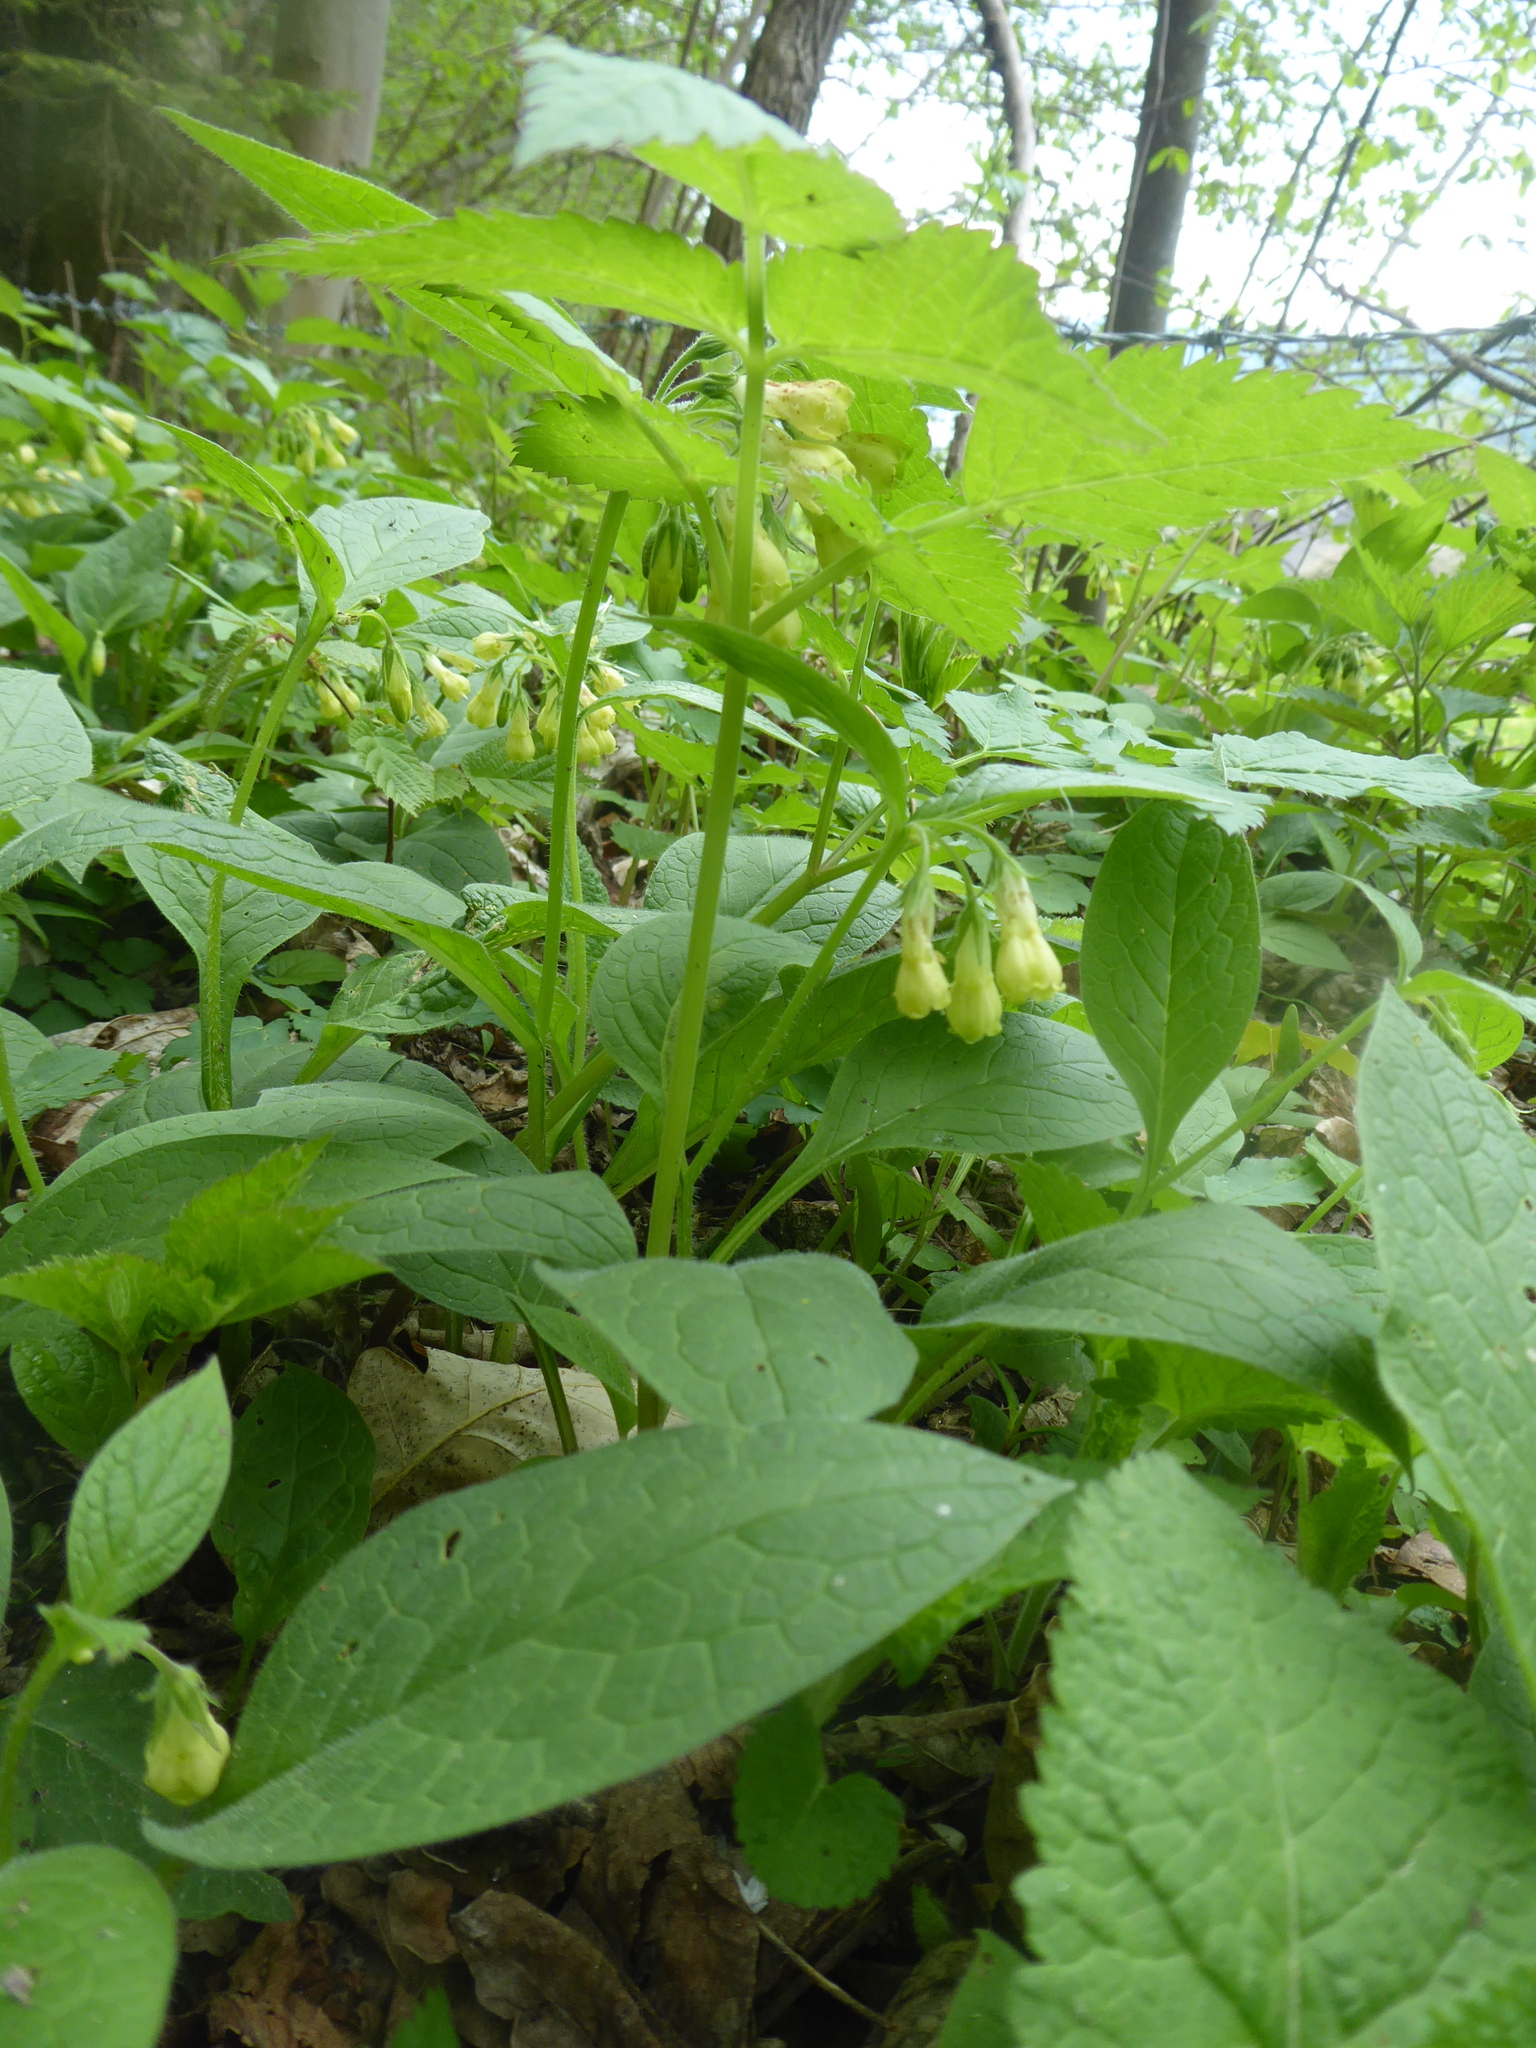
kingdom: Plantae
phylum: Tracheophyta
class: Magnoliopsida
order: Boraginales
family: Boraginaceae
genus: Symphytum
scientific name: Symphytum tuberosum
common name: Tuberous comfrey
